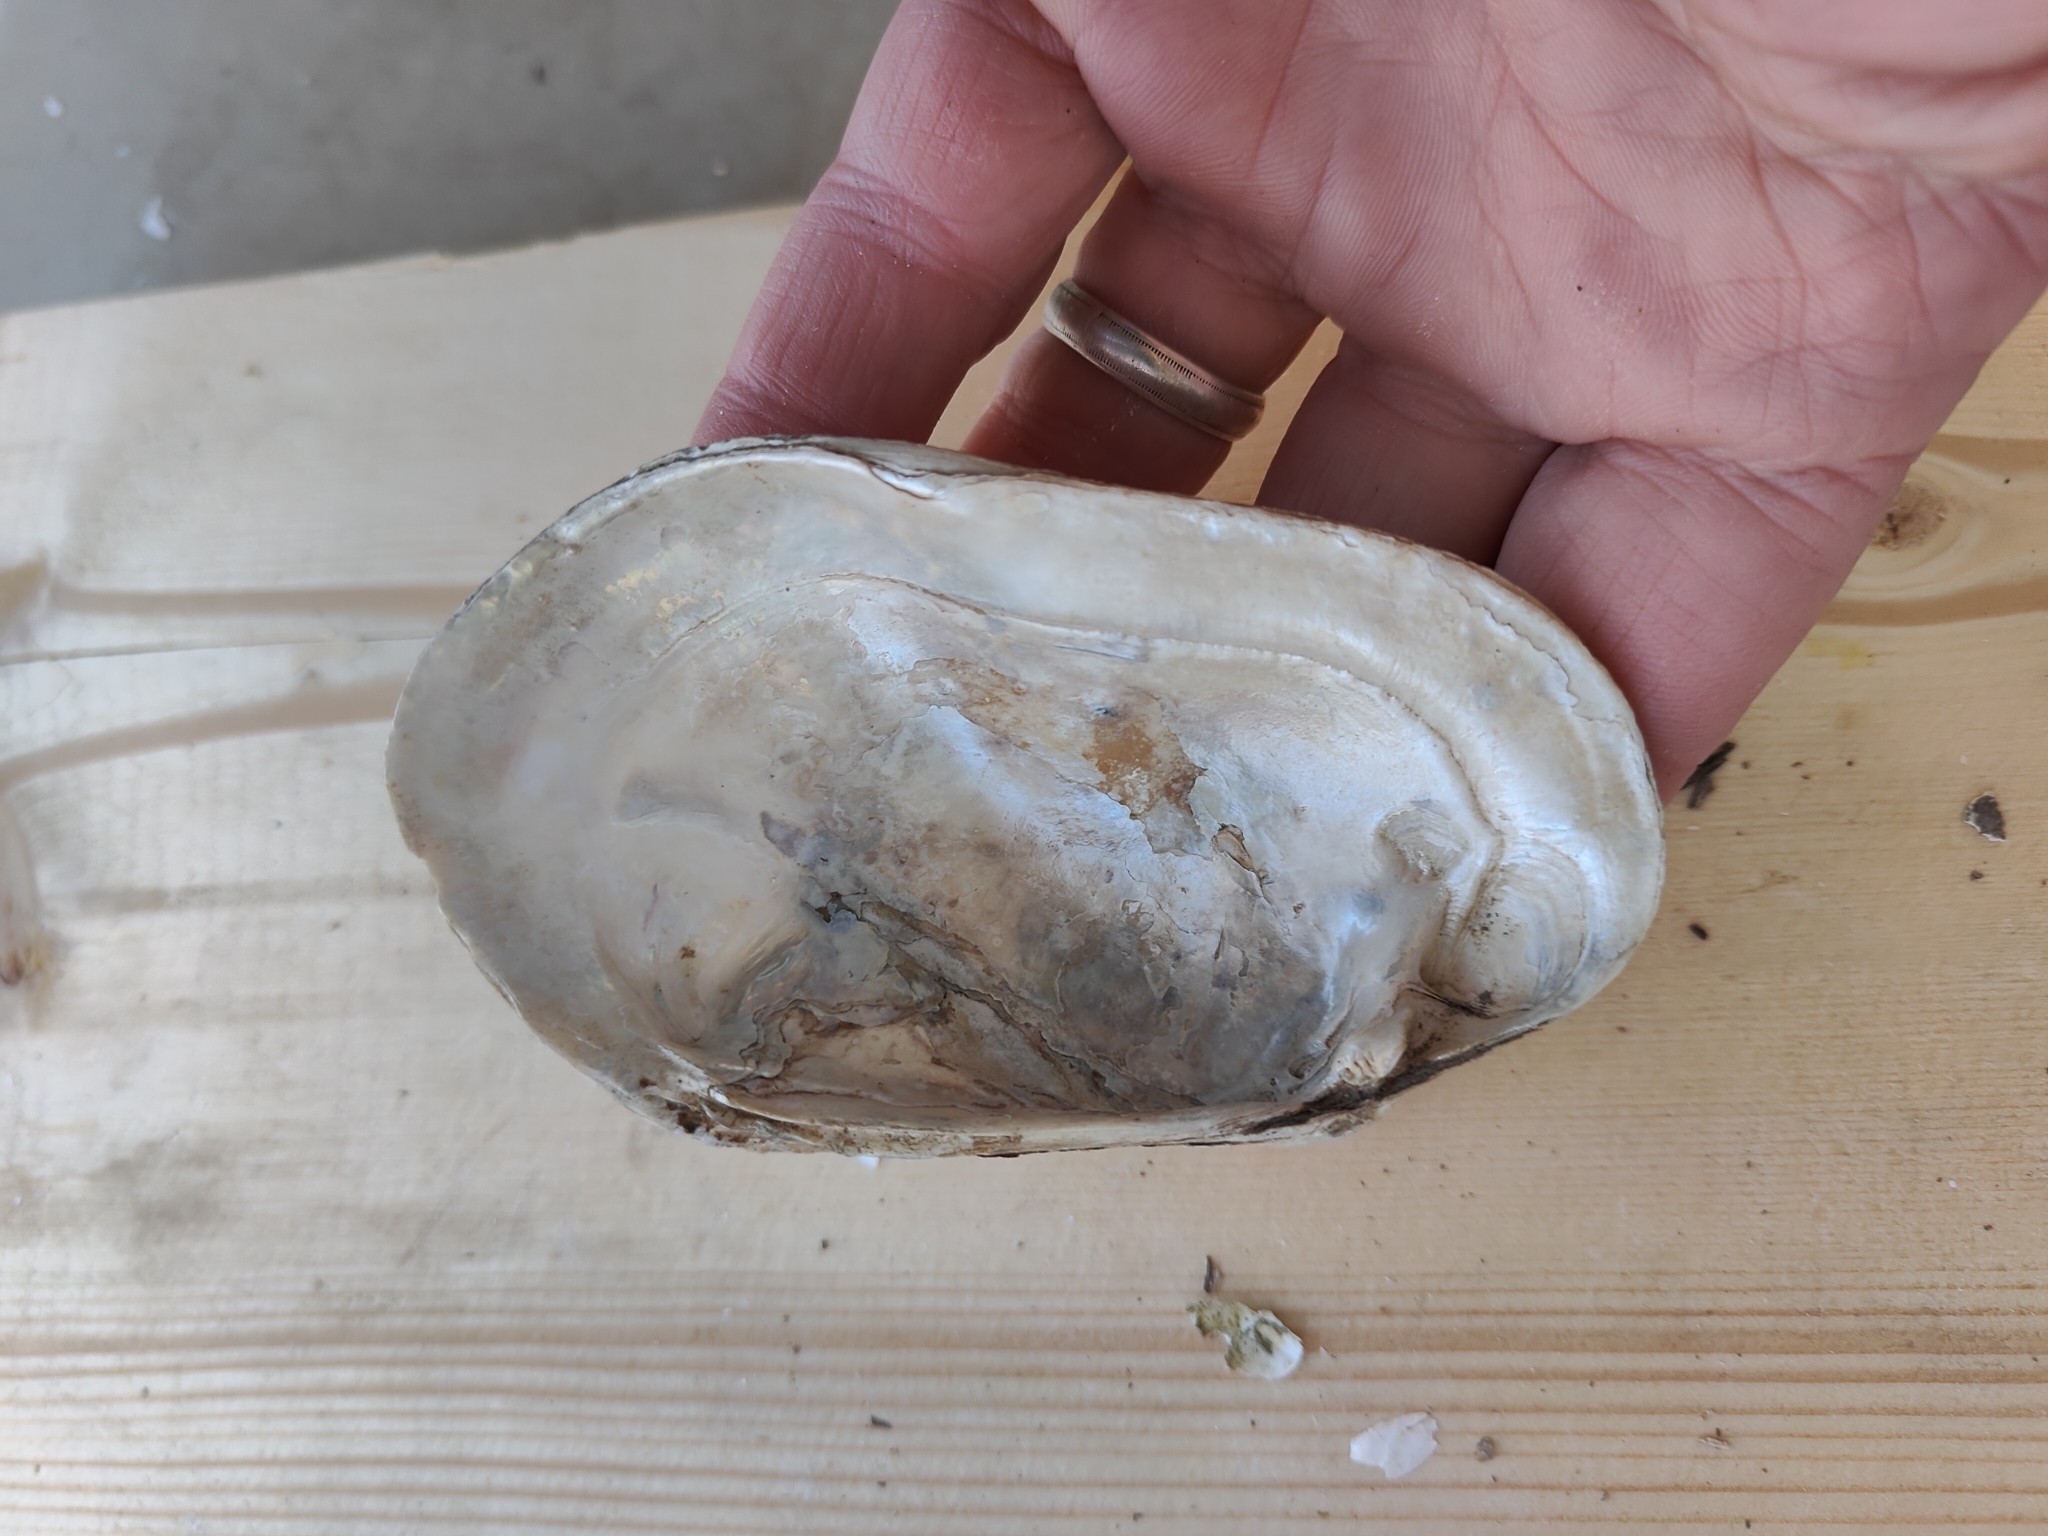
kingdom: Animalia
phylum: Mollusca
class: Bivalvia
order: Unionida
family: Unionidae
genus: Lampsilis
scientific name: Lampsilis siliquoidea
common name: Fatmucket
